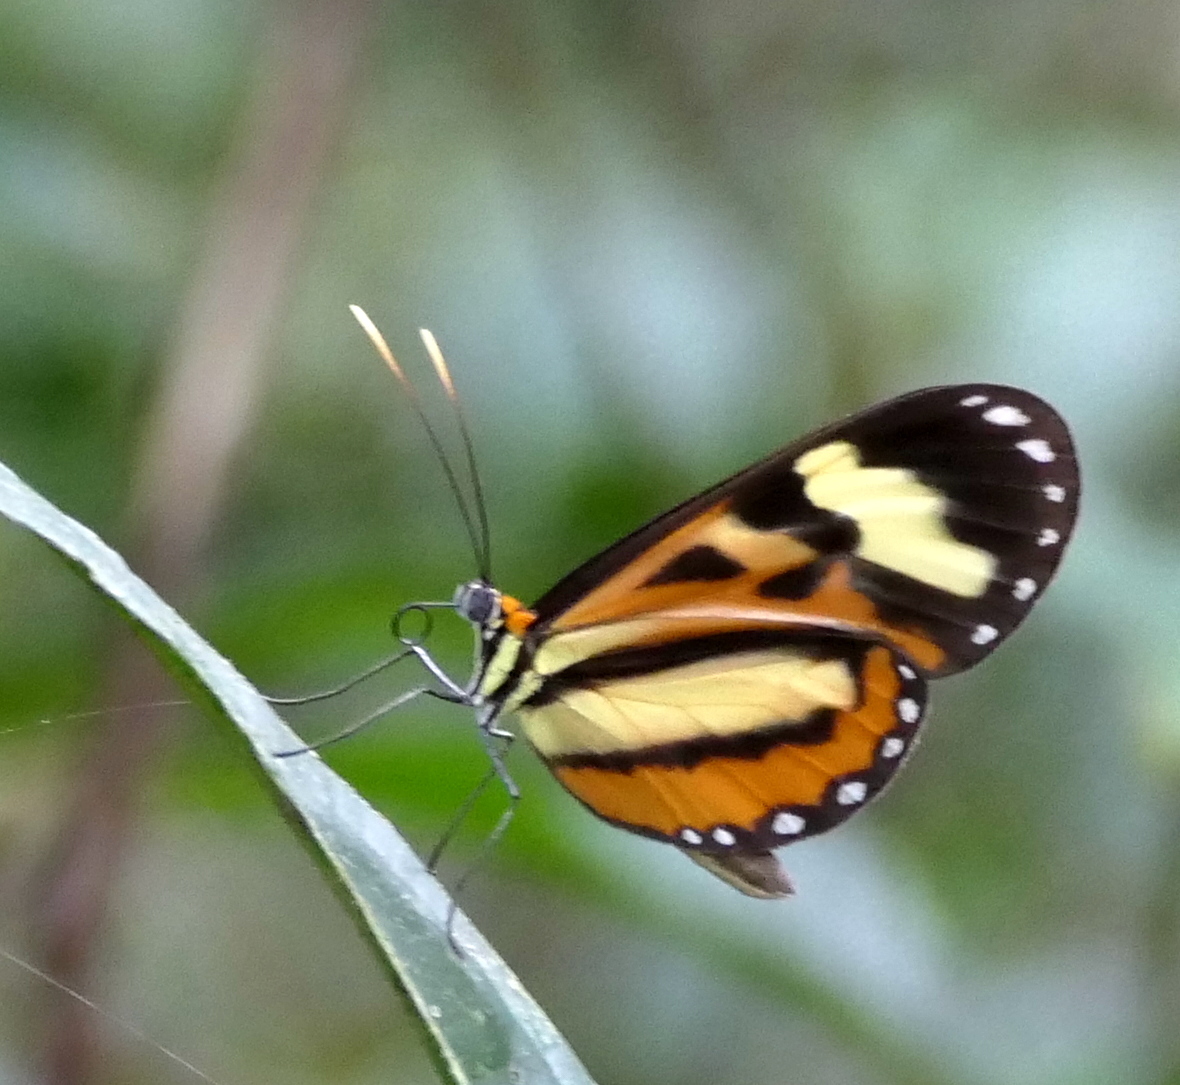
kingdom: Animalia
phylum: Arthropoda
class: Insecta
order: Lepidoptera
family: Nymphalidae
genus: Hypothyris
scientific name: Hypothyris euclea
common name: Euclea tigerwing
